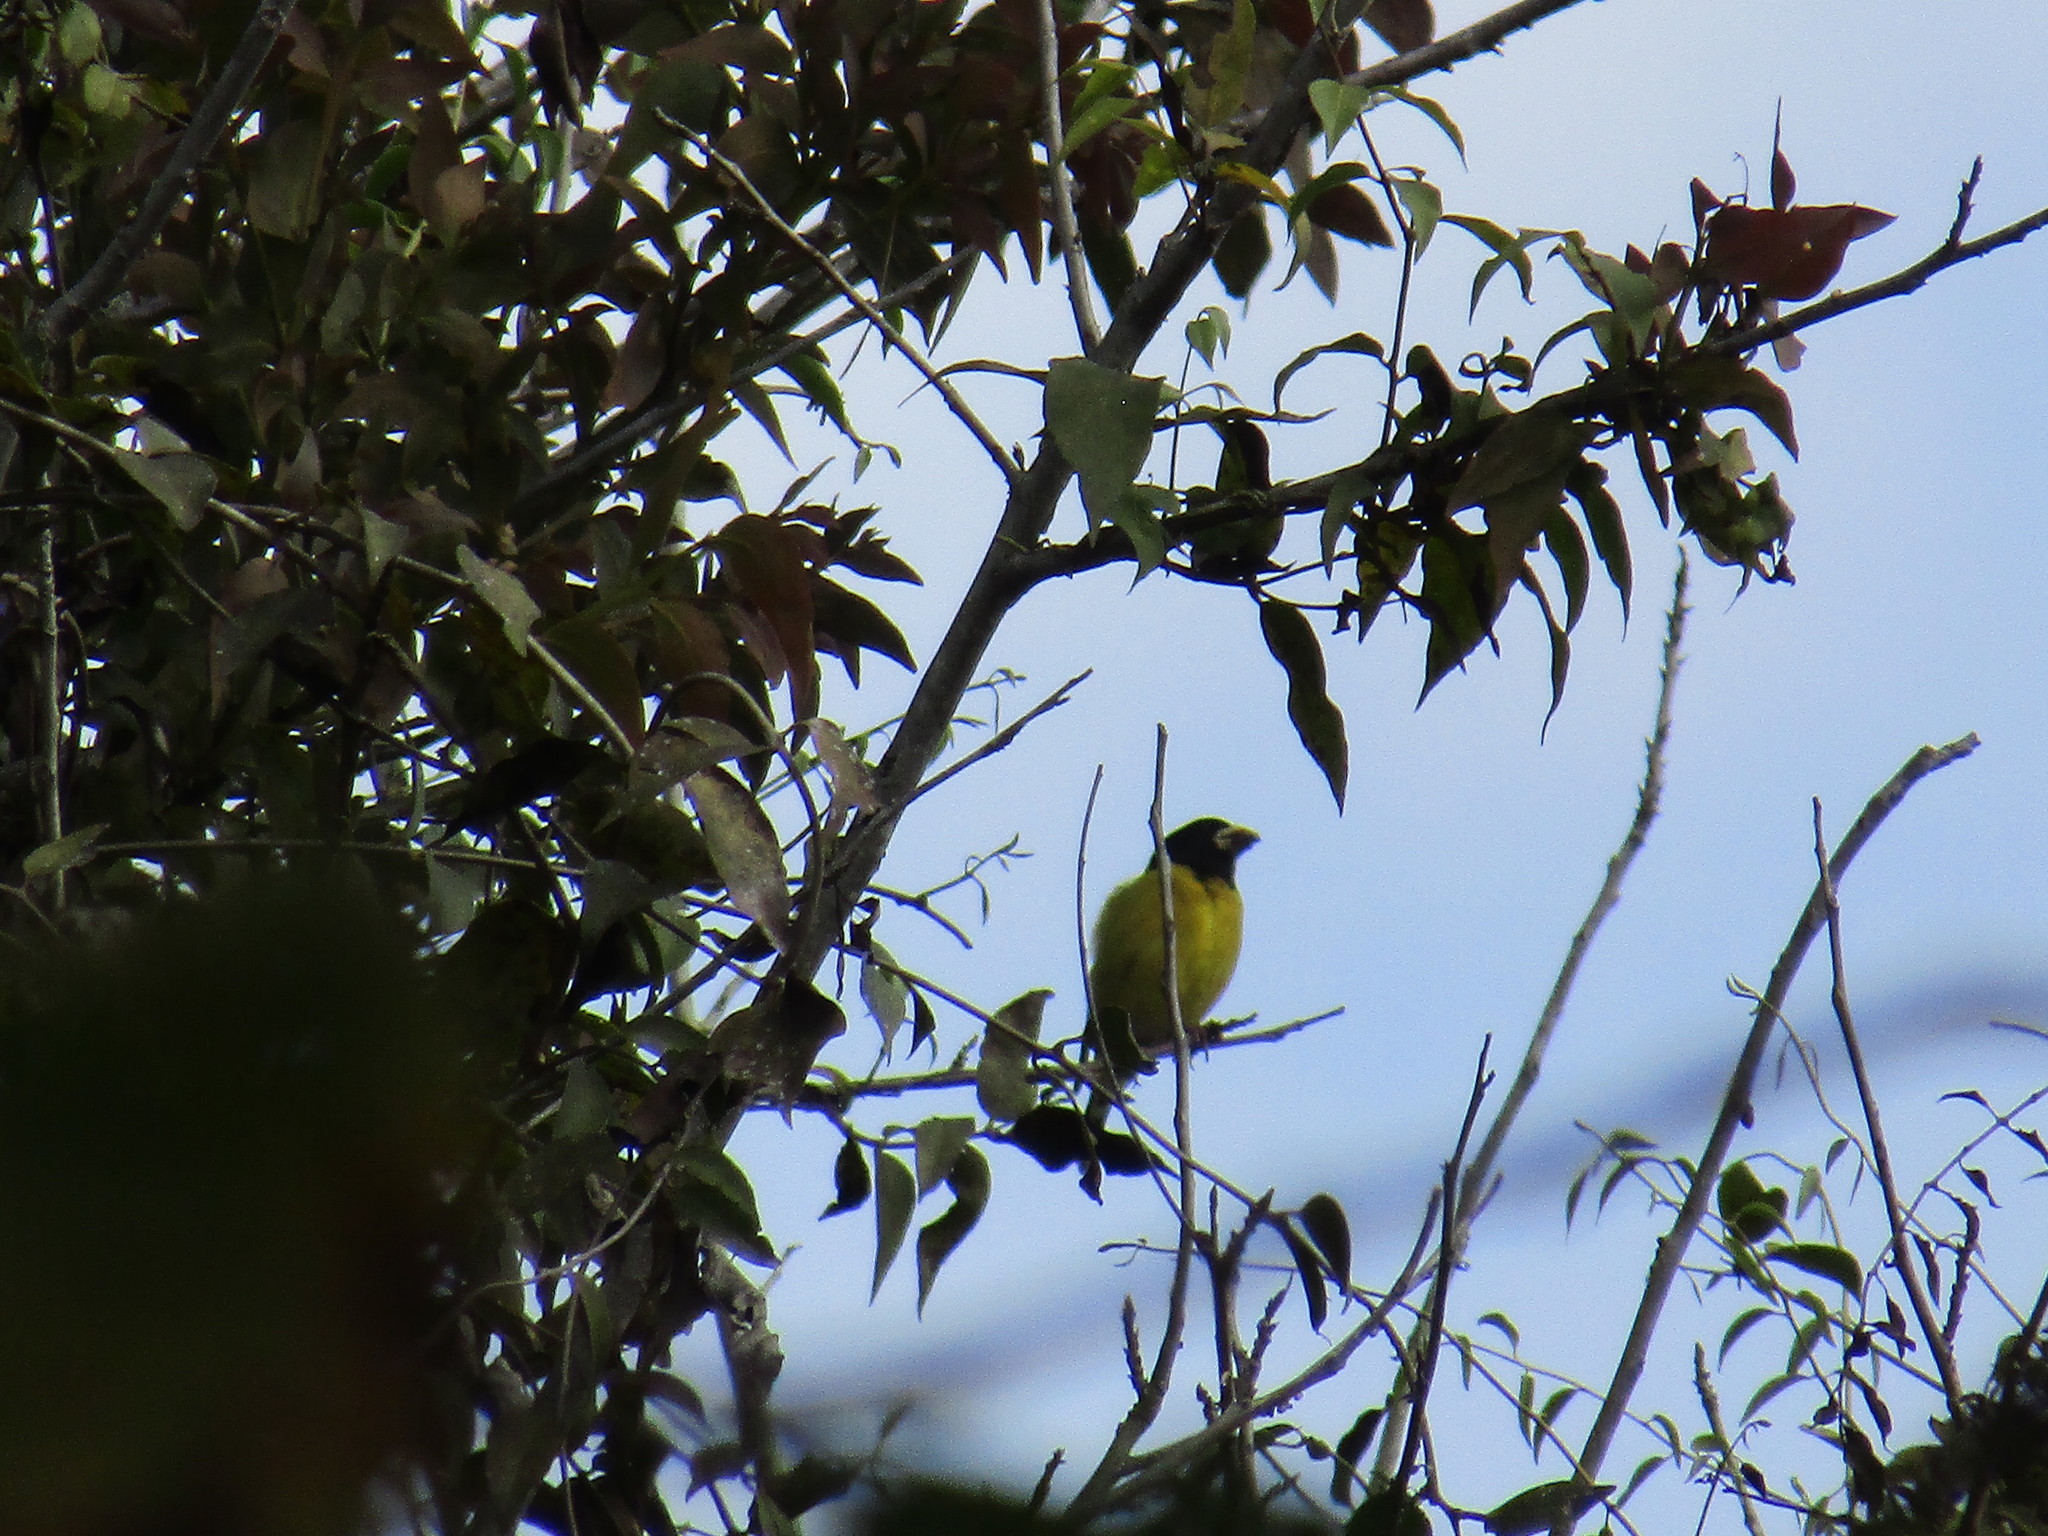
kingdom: Animalia
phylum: Chordata
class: Aves
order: Passeriformes
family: Fringillidae
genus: Hesperiphona
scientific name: Hesperiphona abeillei
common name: Hooded grosbeak
